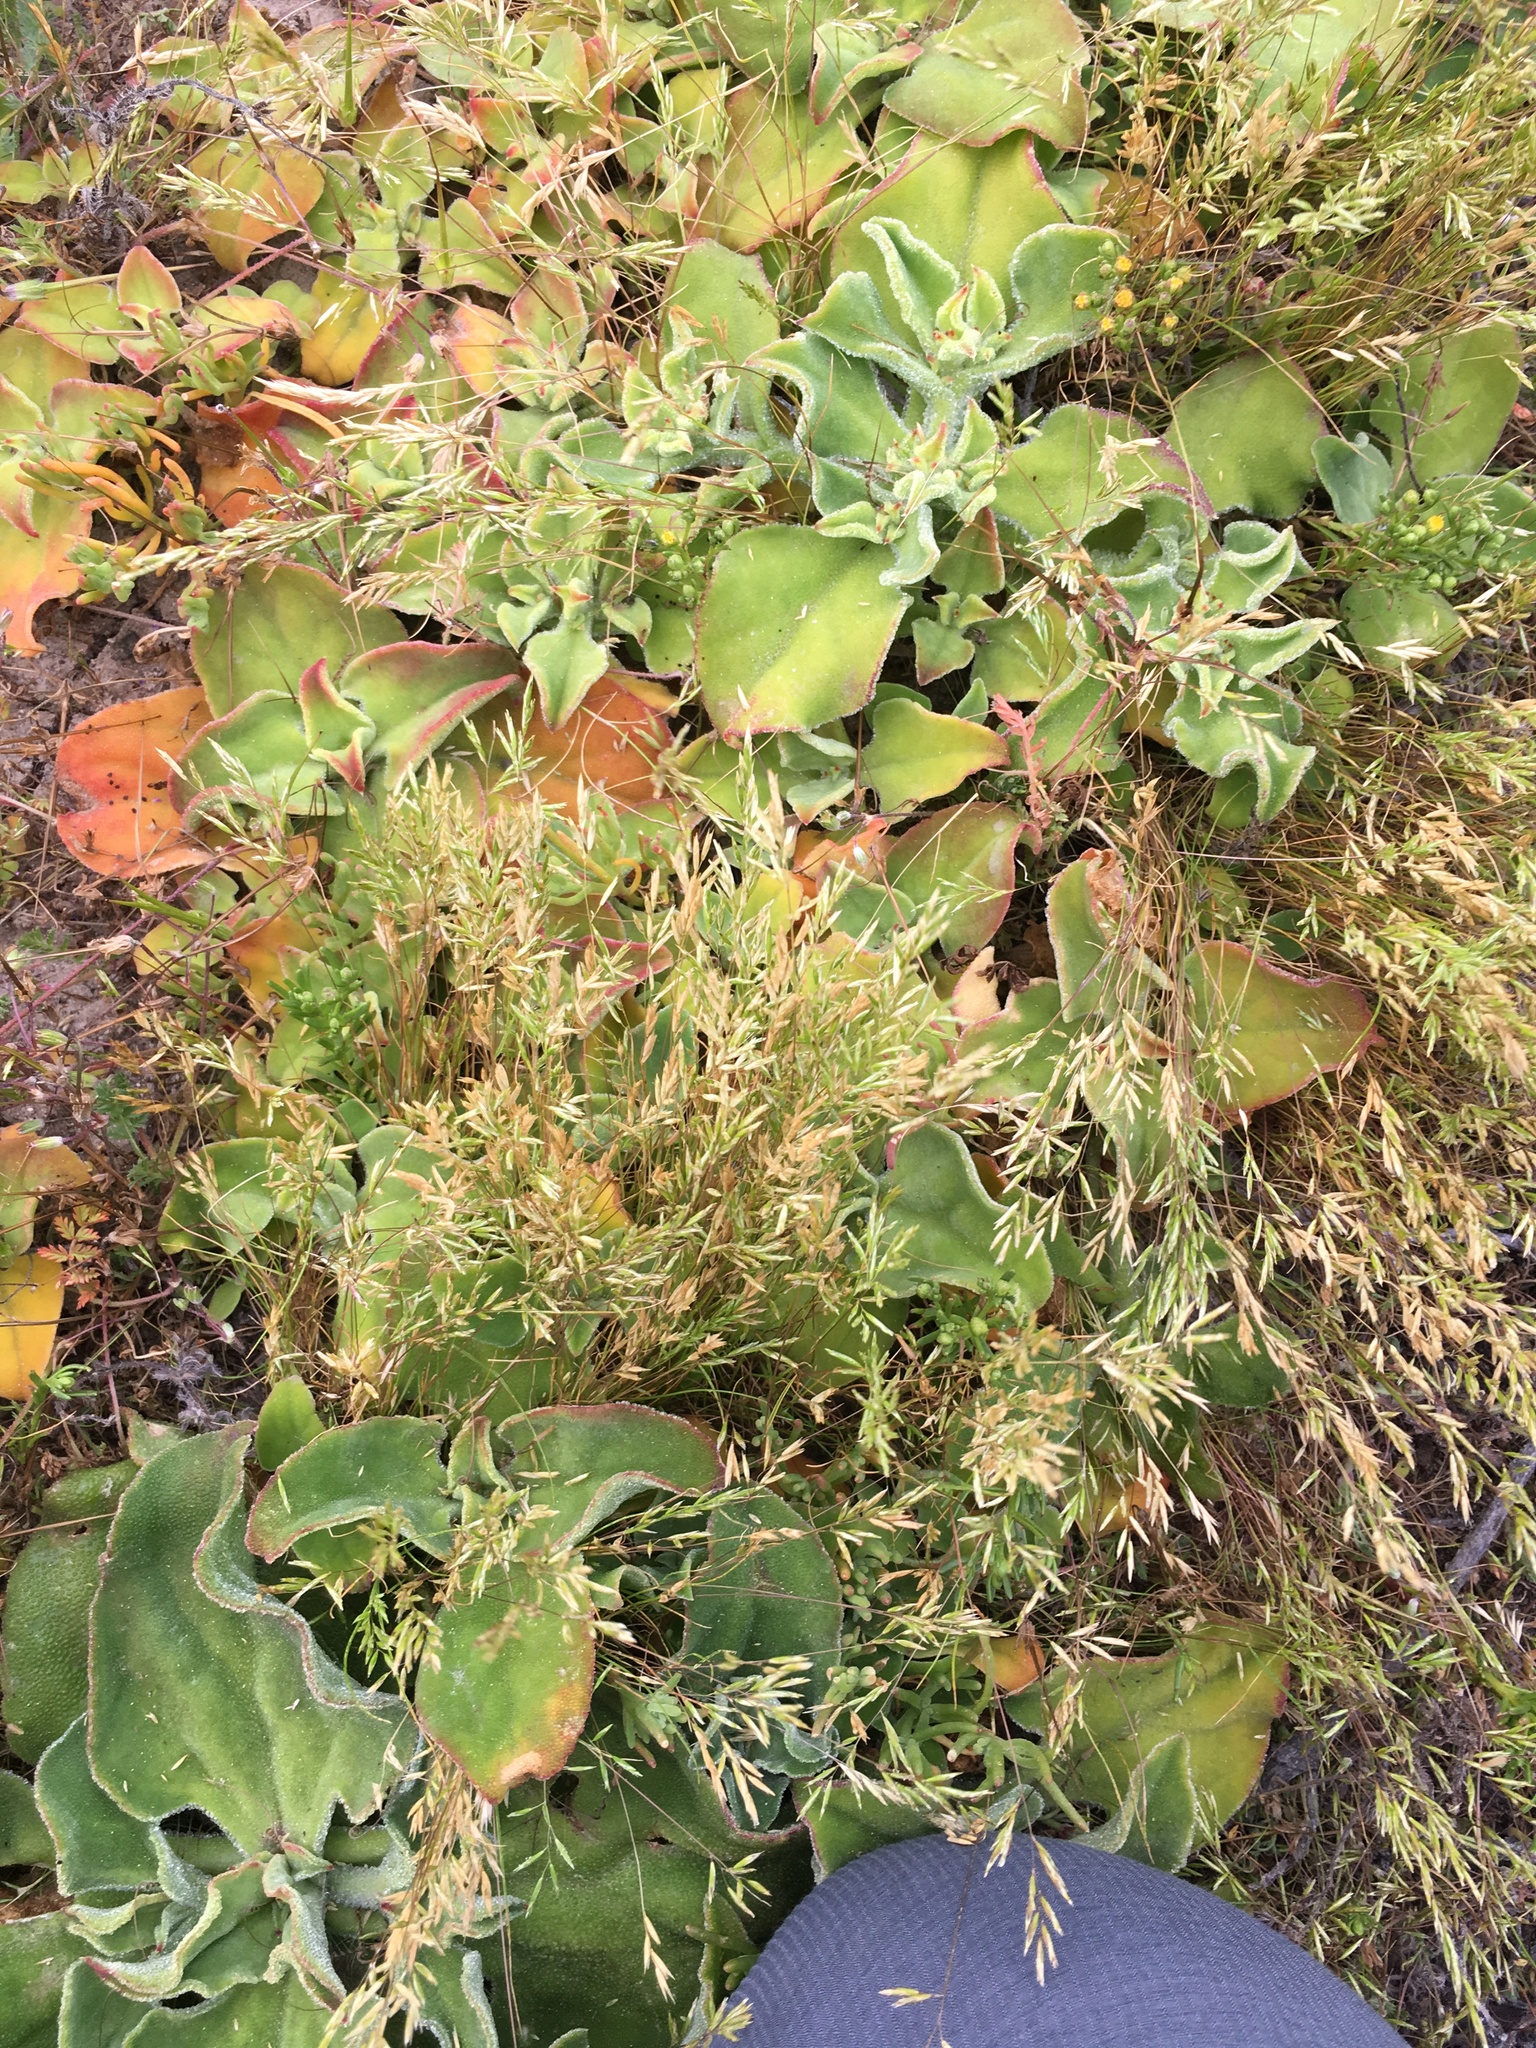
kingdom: Plantae
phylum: Tracheophyta
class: Magnoliopsida
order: Caryophyllales
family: Aizoaceae
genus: Mesembryanthemum
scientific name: Mesembryanthemum crystallinum
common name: Common iceplant
